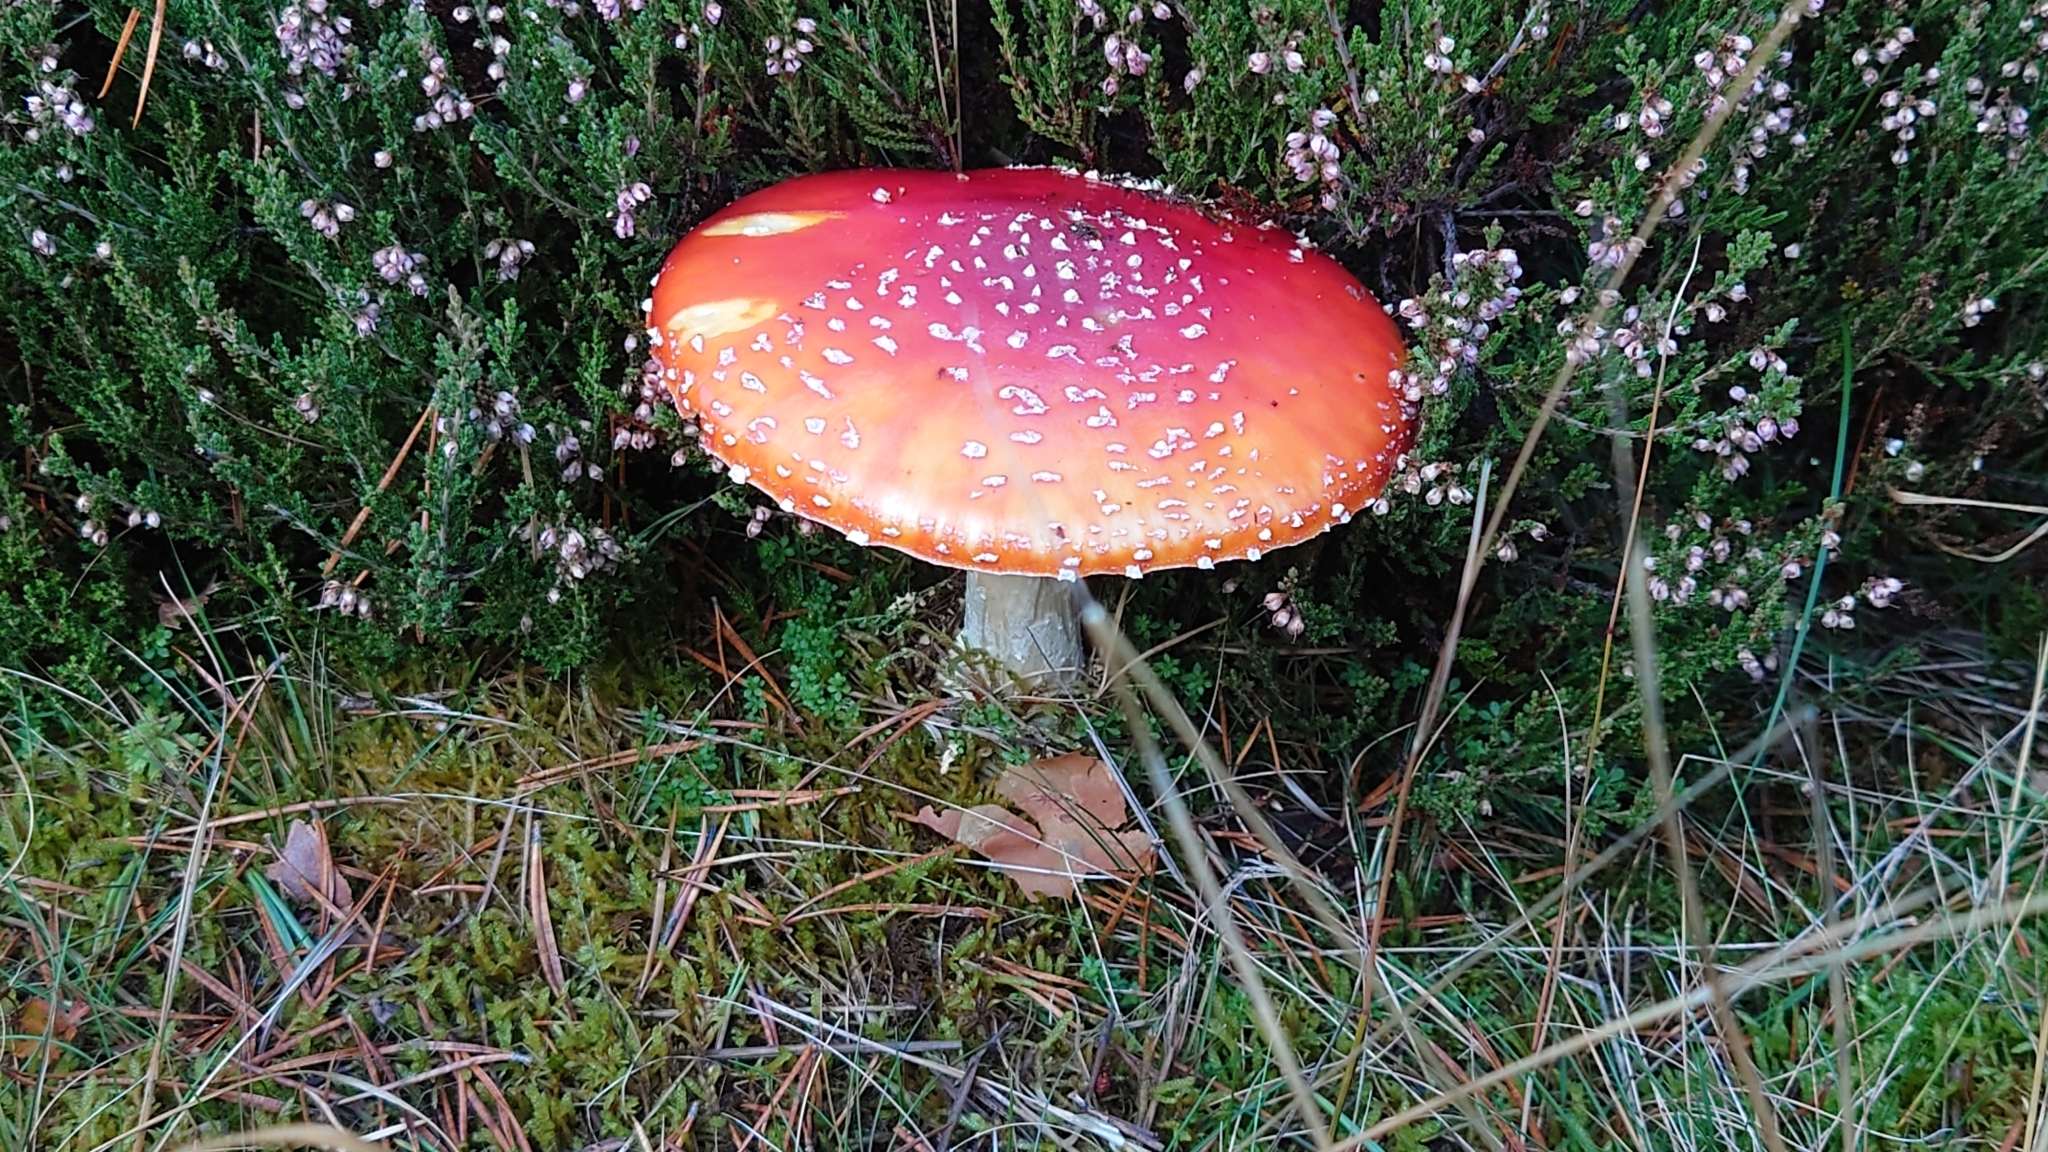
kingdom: Fungi
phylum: Basidiomycota
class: Agaricomycetes
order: Agaricales
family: Amanitaceae
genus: Amanita
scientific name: Amanita muscaria
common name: Fly agaric
